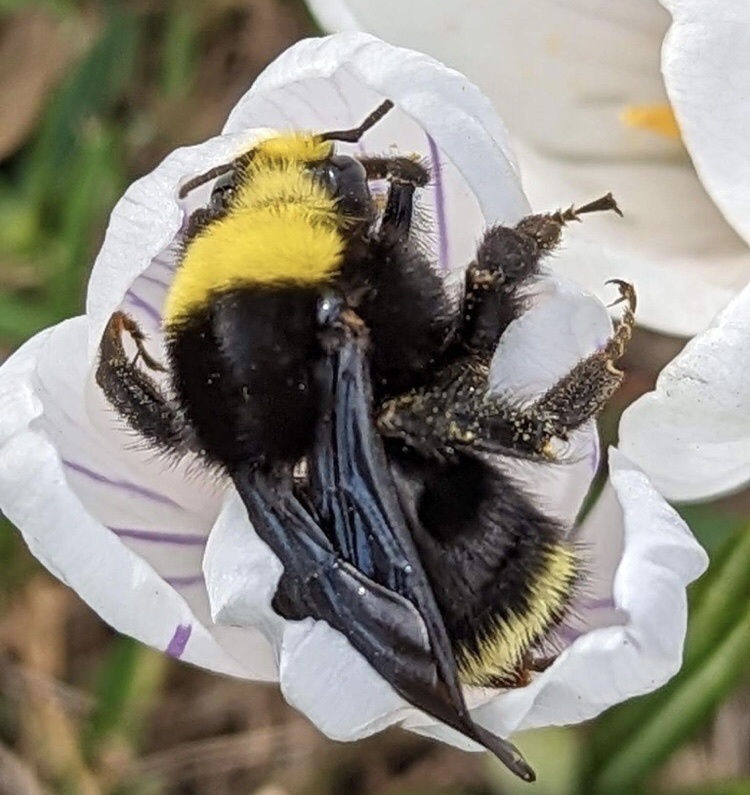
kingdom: Animalia
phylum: Arthropoda
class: Insecta
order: Hymenoptera
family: Apidae
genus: Bombus
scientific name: Bombus vosnesenskii
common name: Vosnesensky bumble bee
